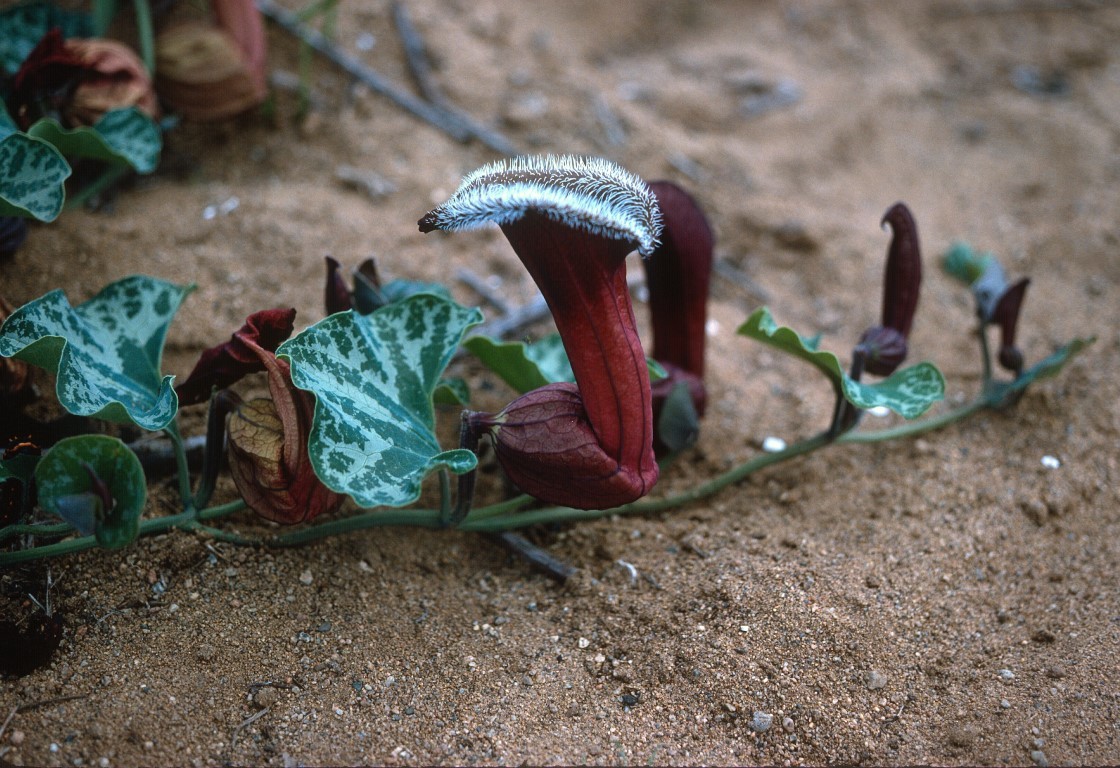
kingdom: Plantae
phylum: Tracheophyta
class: Magnoliopsida
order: Piperales
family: Aristolochiaceae
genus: Aristolochia
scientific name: Aristolochia chilensis
